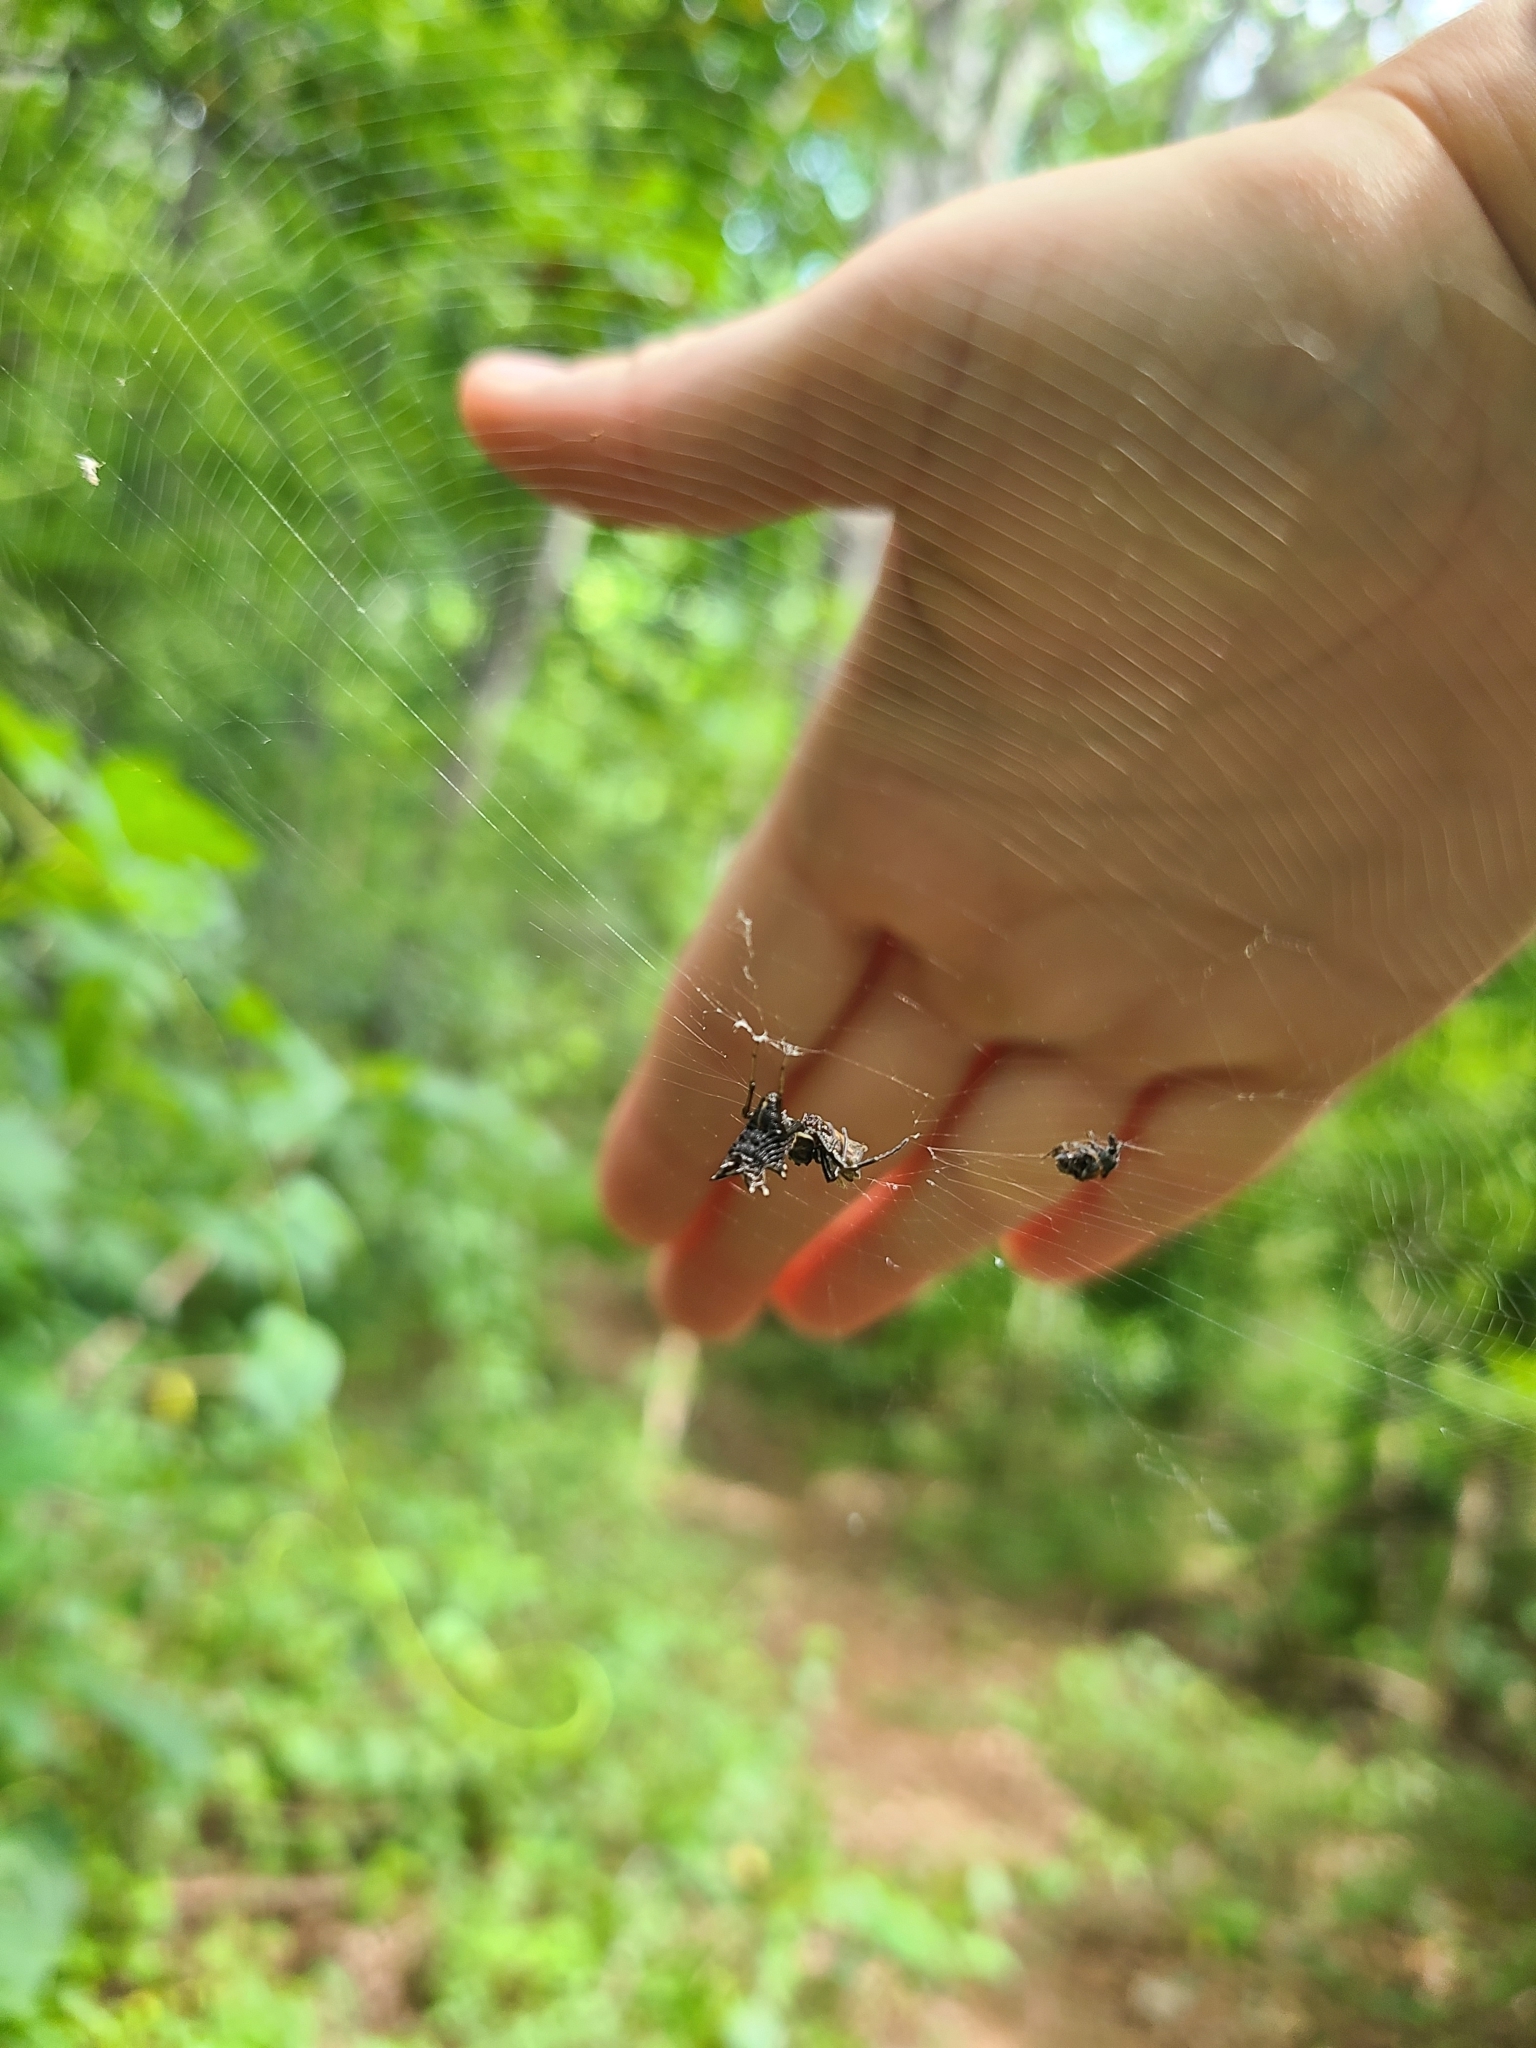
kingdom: Animalia
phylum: Arthropoda
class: Arachnida
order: Araneae
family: Araneidae
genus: Micrathena
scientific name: Micrathena gracilis
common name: Orb weavers
